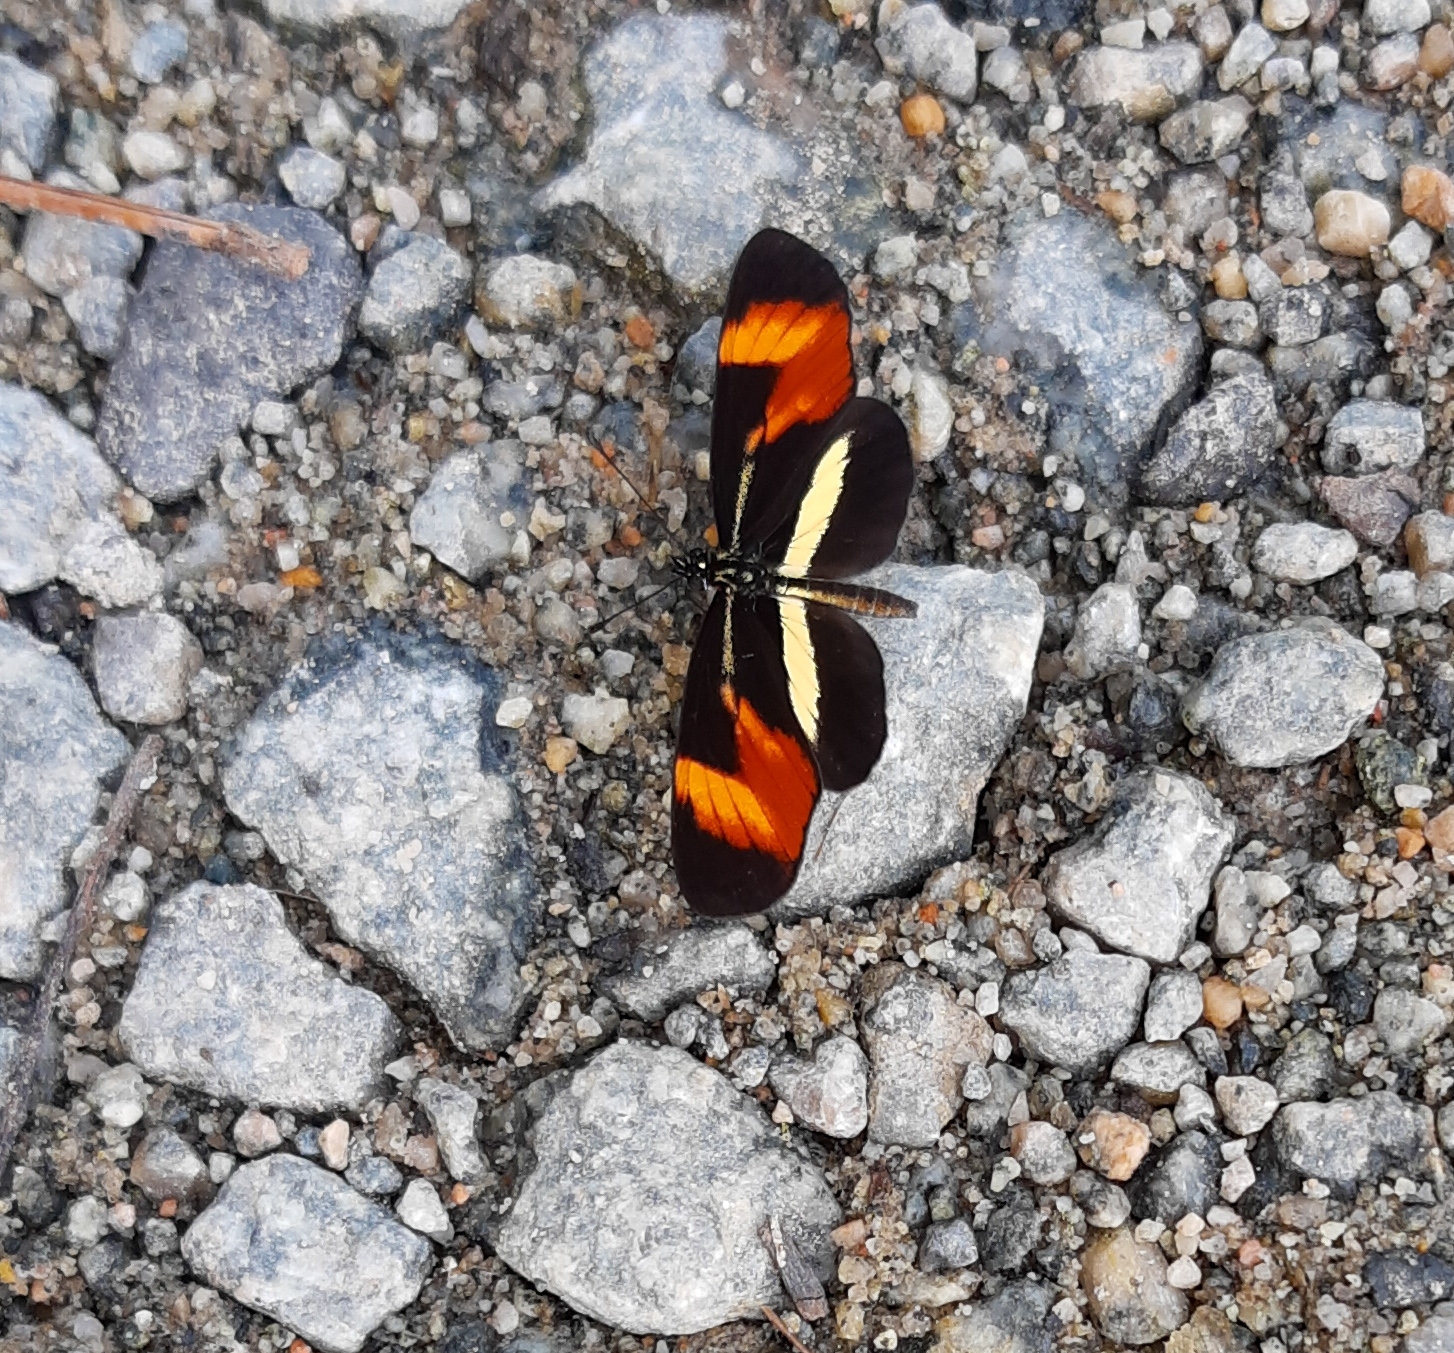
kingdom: Animalia
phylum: Arthropoda
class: Insecta
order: Lepidoptera
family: Nymphalidae
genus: Eresia
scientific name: Eresia lansdorfi
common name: Lansdorf's crescent
